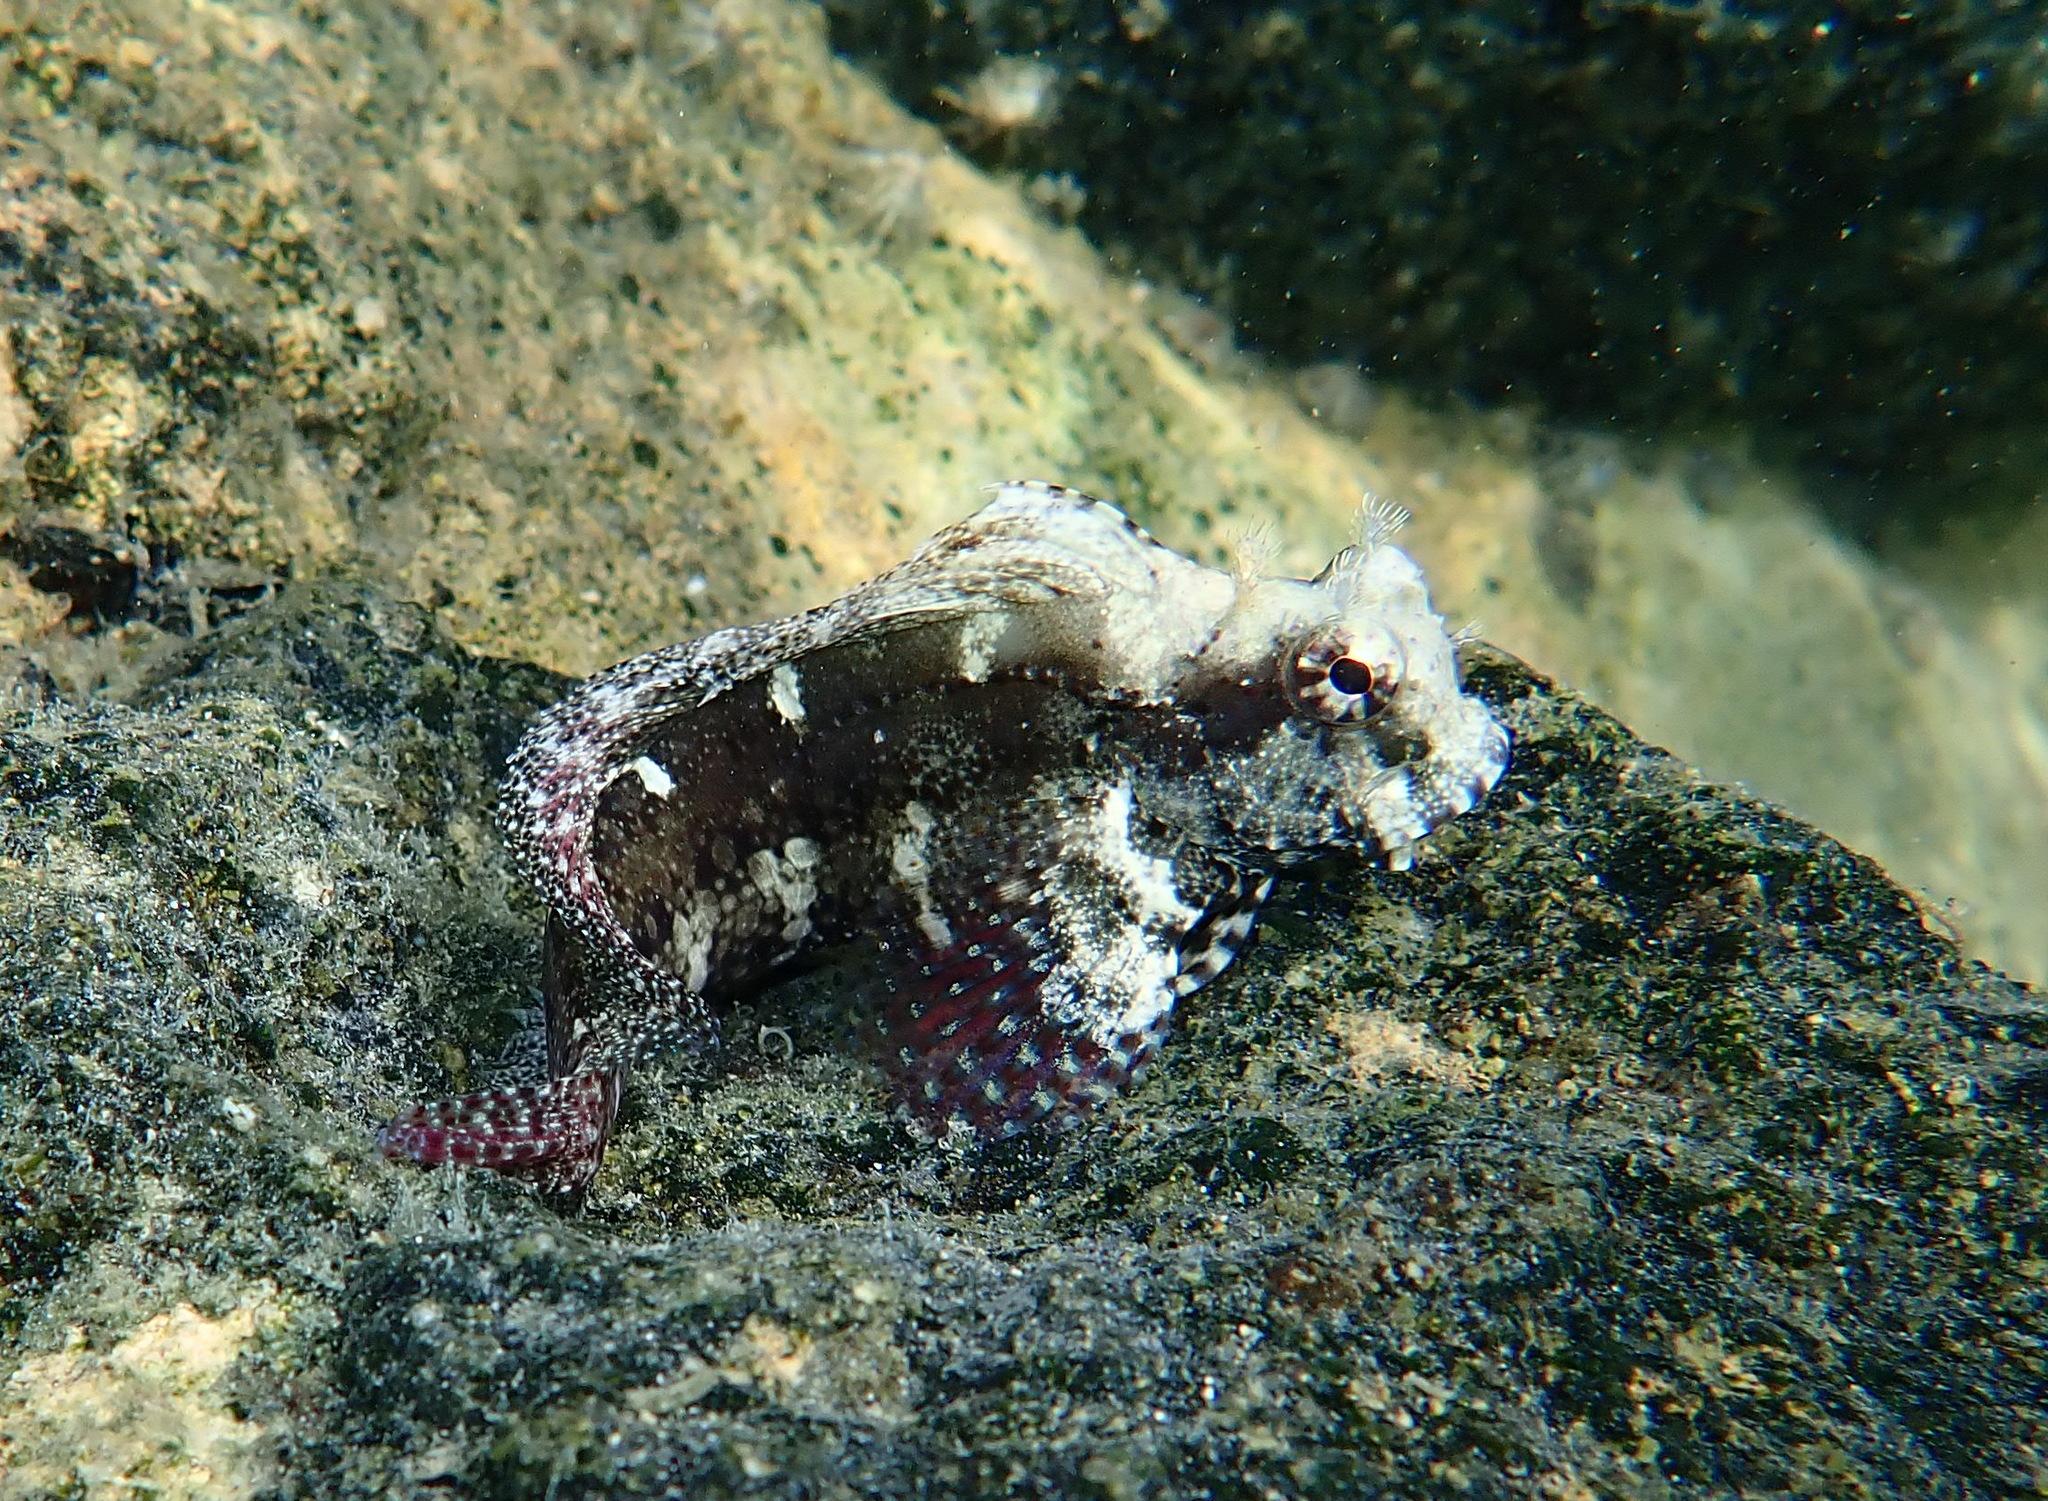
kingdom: Animalia
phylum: Chordata
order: Perciformes
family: Blenniidae
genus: Salarias
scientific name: Salarias ceramensis
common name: Seram blenny
